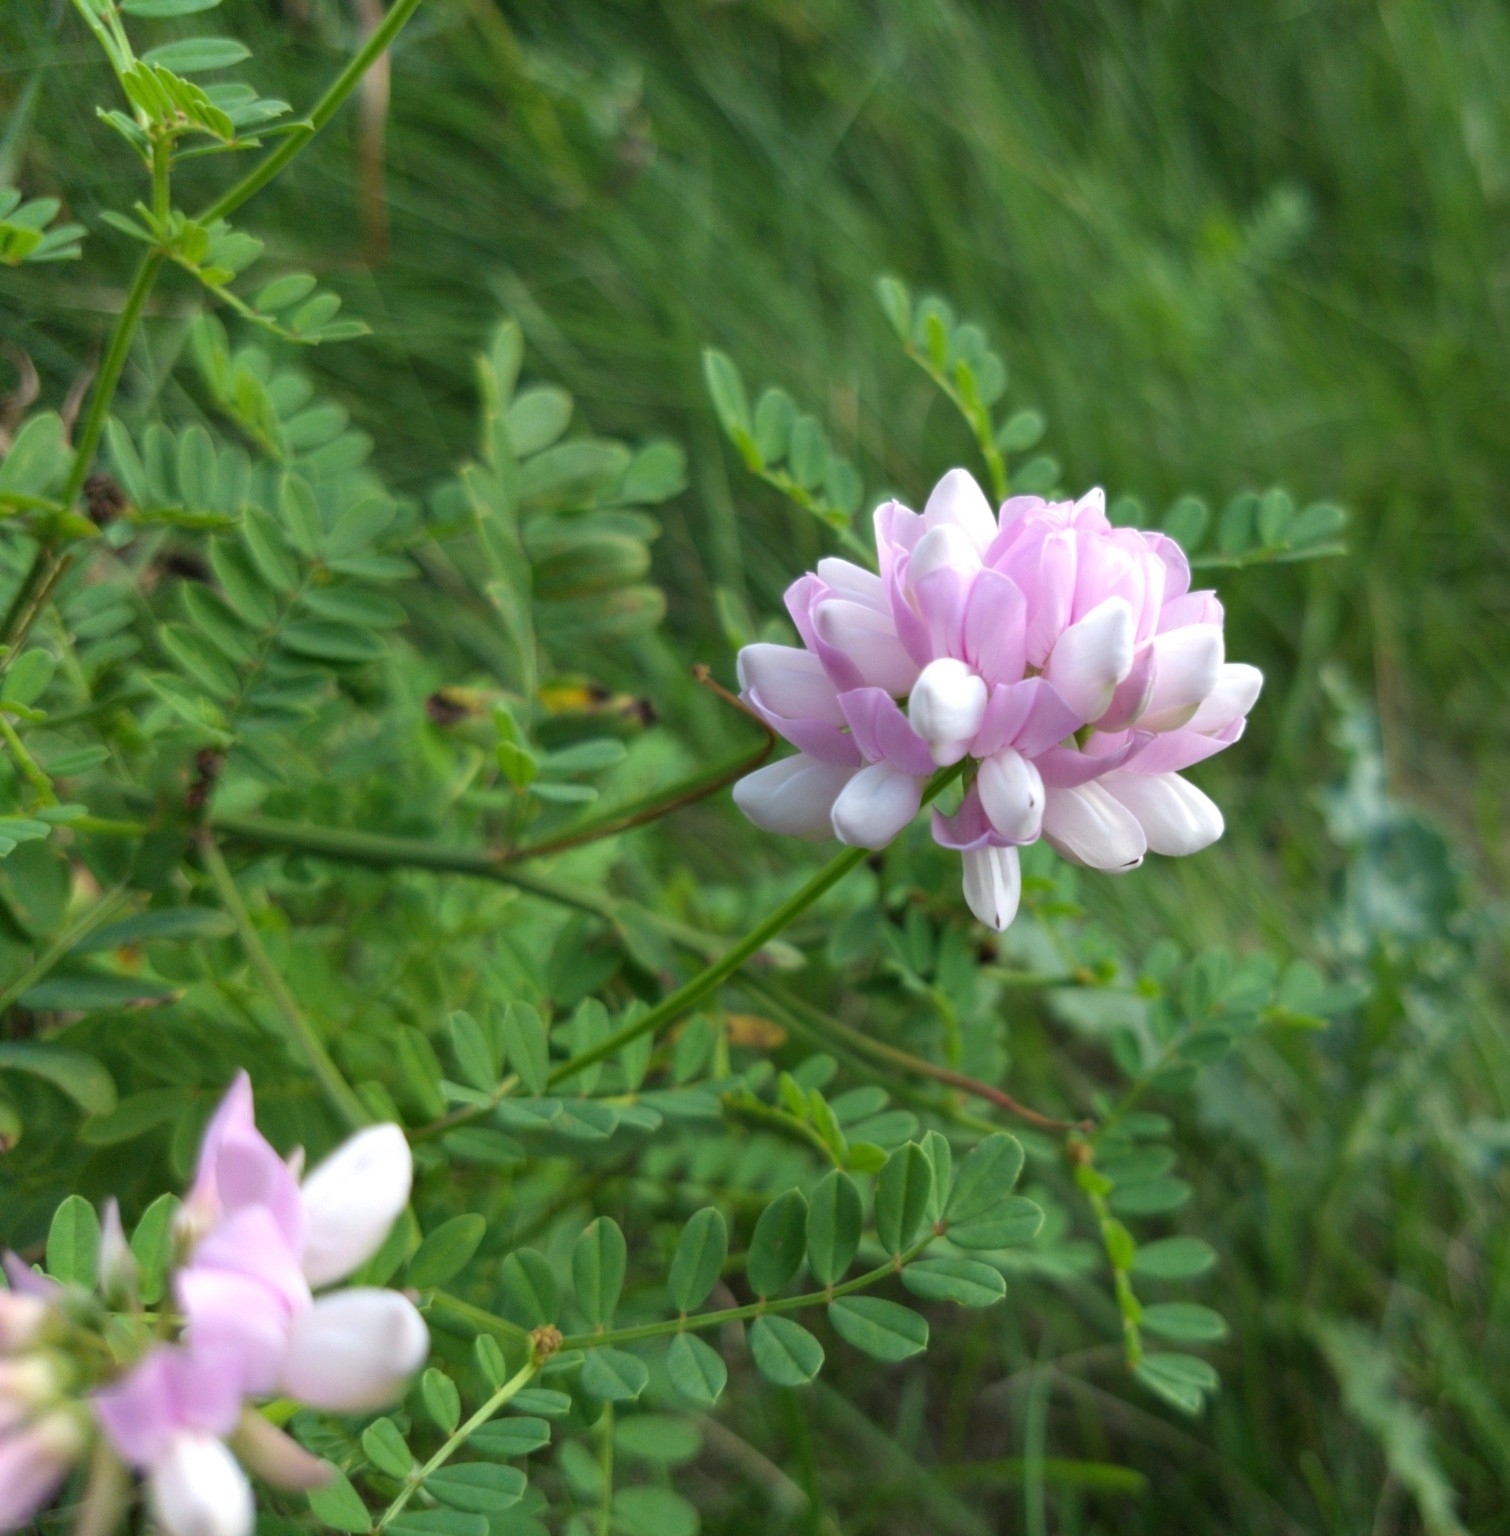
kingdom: Plantae
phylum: Tracheophyta
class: Magnoliopsida
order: Fabales
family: Fabaceae
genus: Coronilla
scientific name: Coronilla varia
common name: Crownvetch
